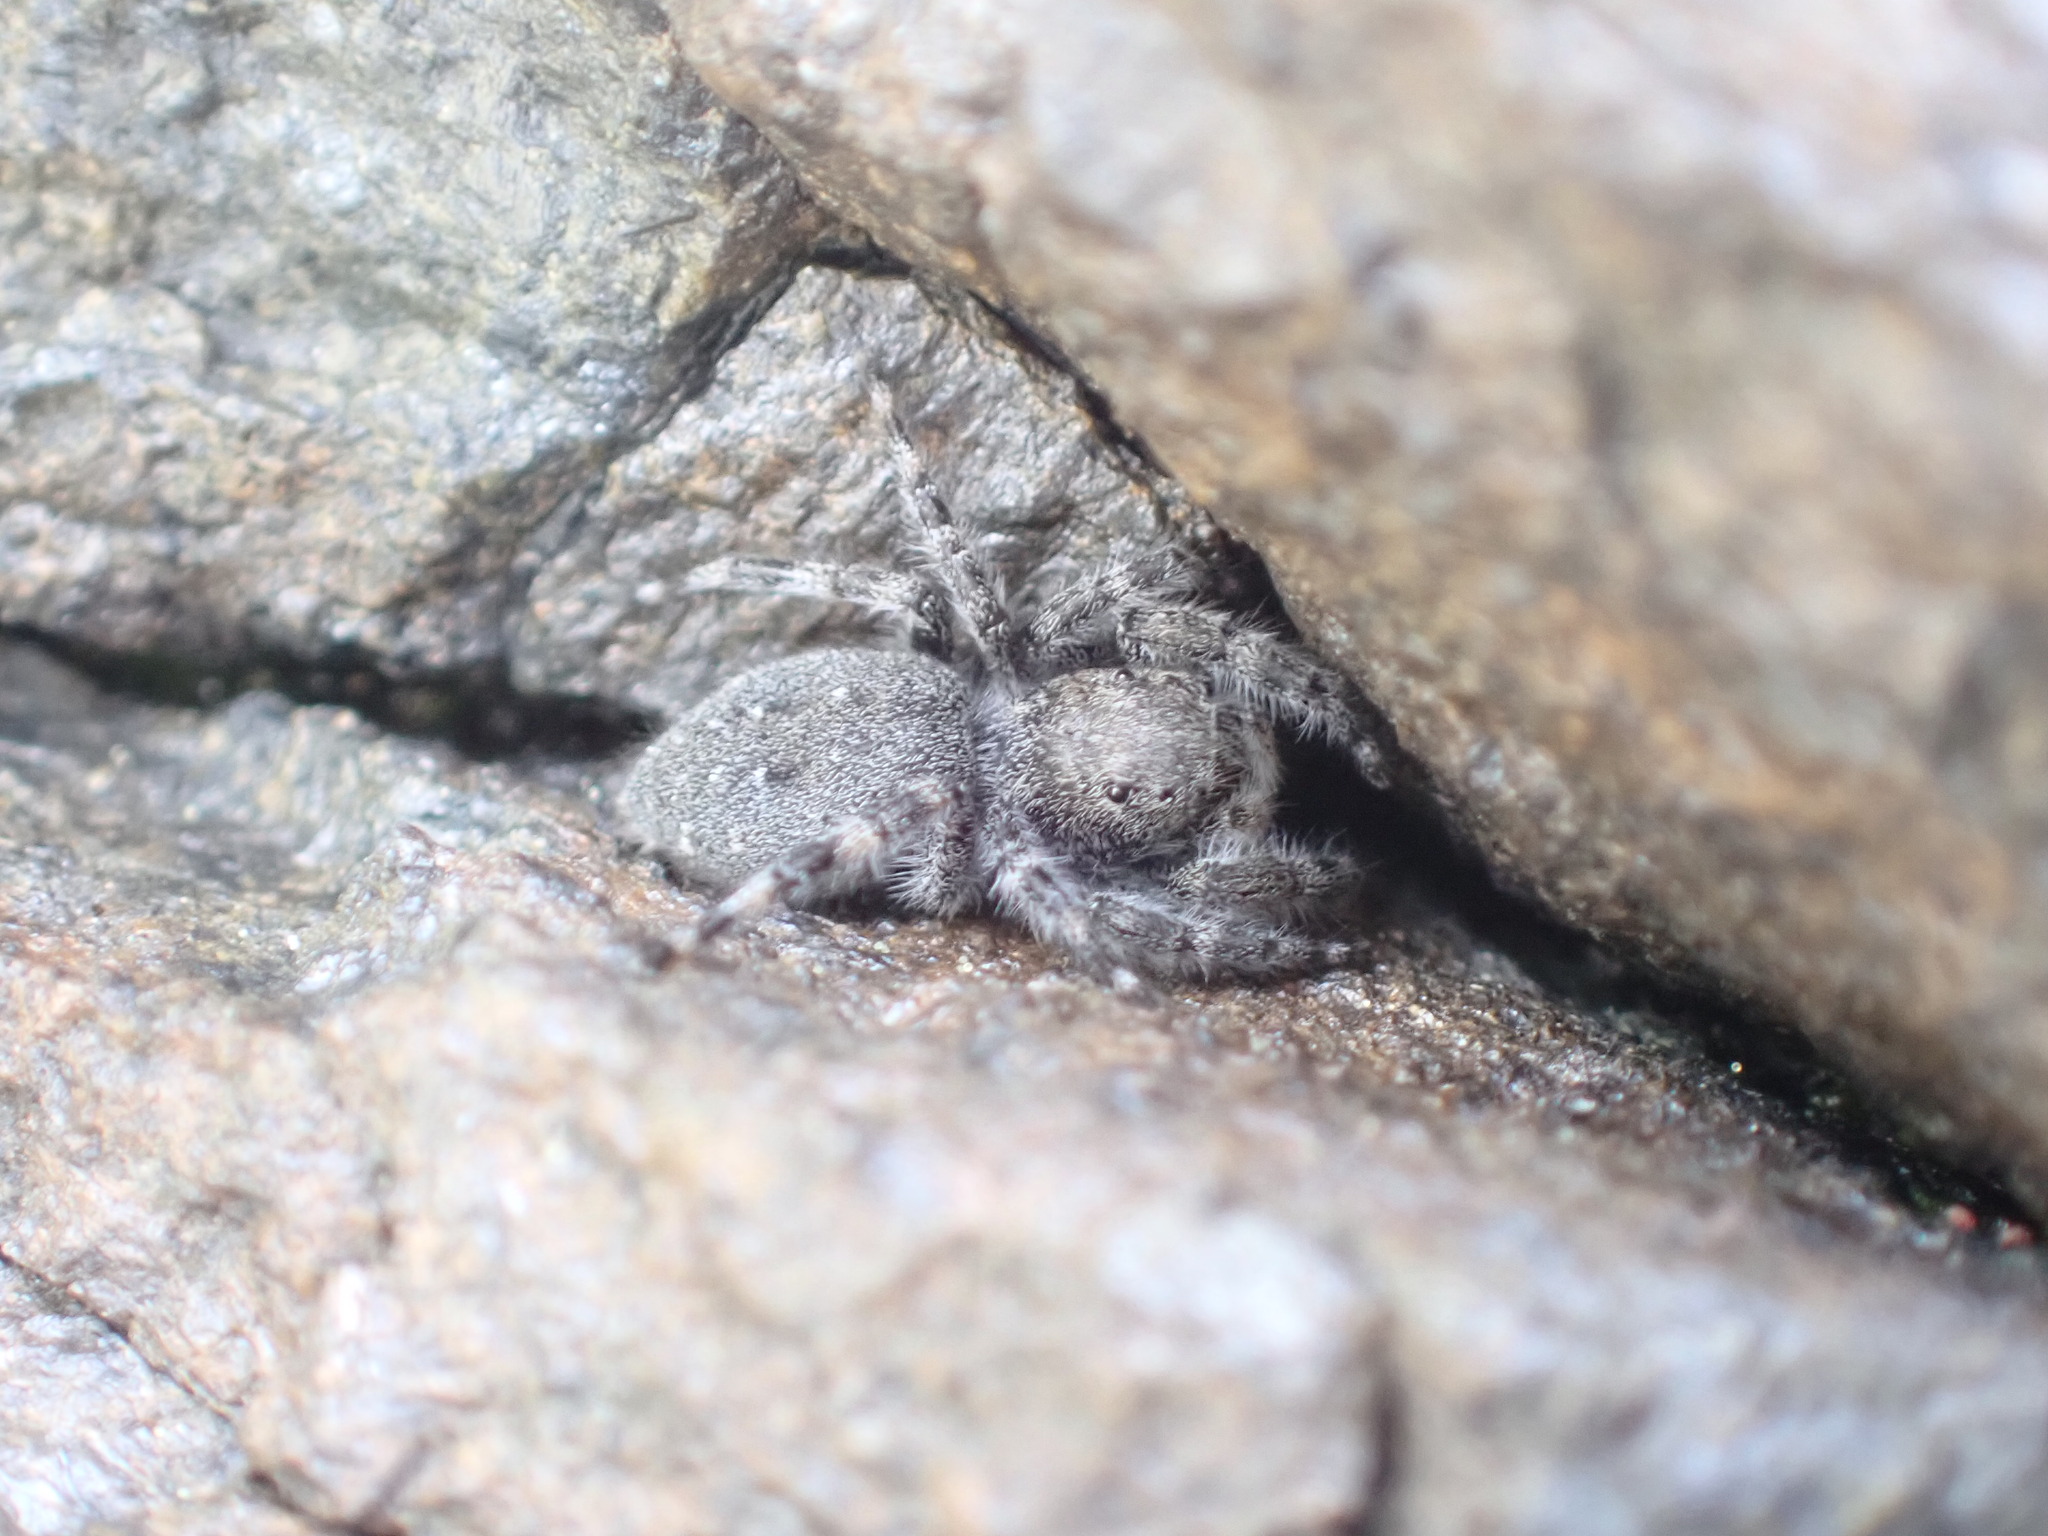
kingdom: Animalia
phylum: Arthropoda
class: Arachnida
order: Araneae
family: Salticidae
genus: Terralonus
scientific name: Terralonus californicus
